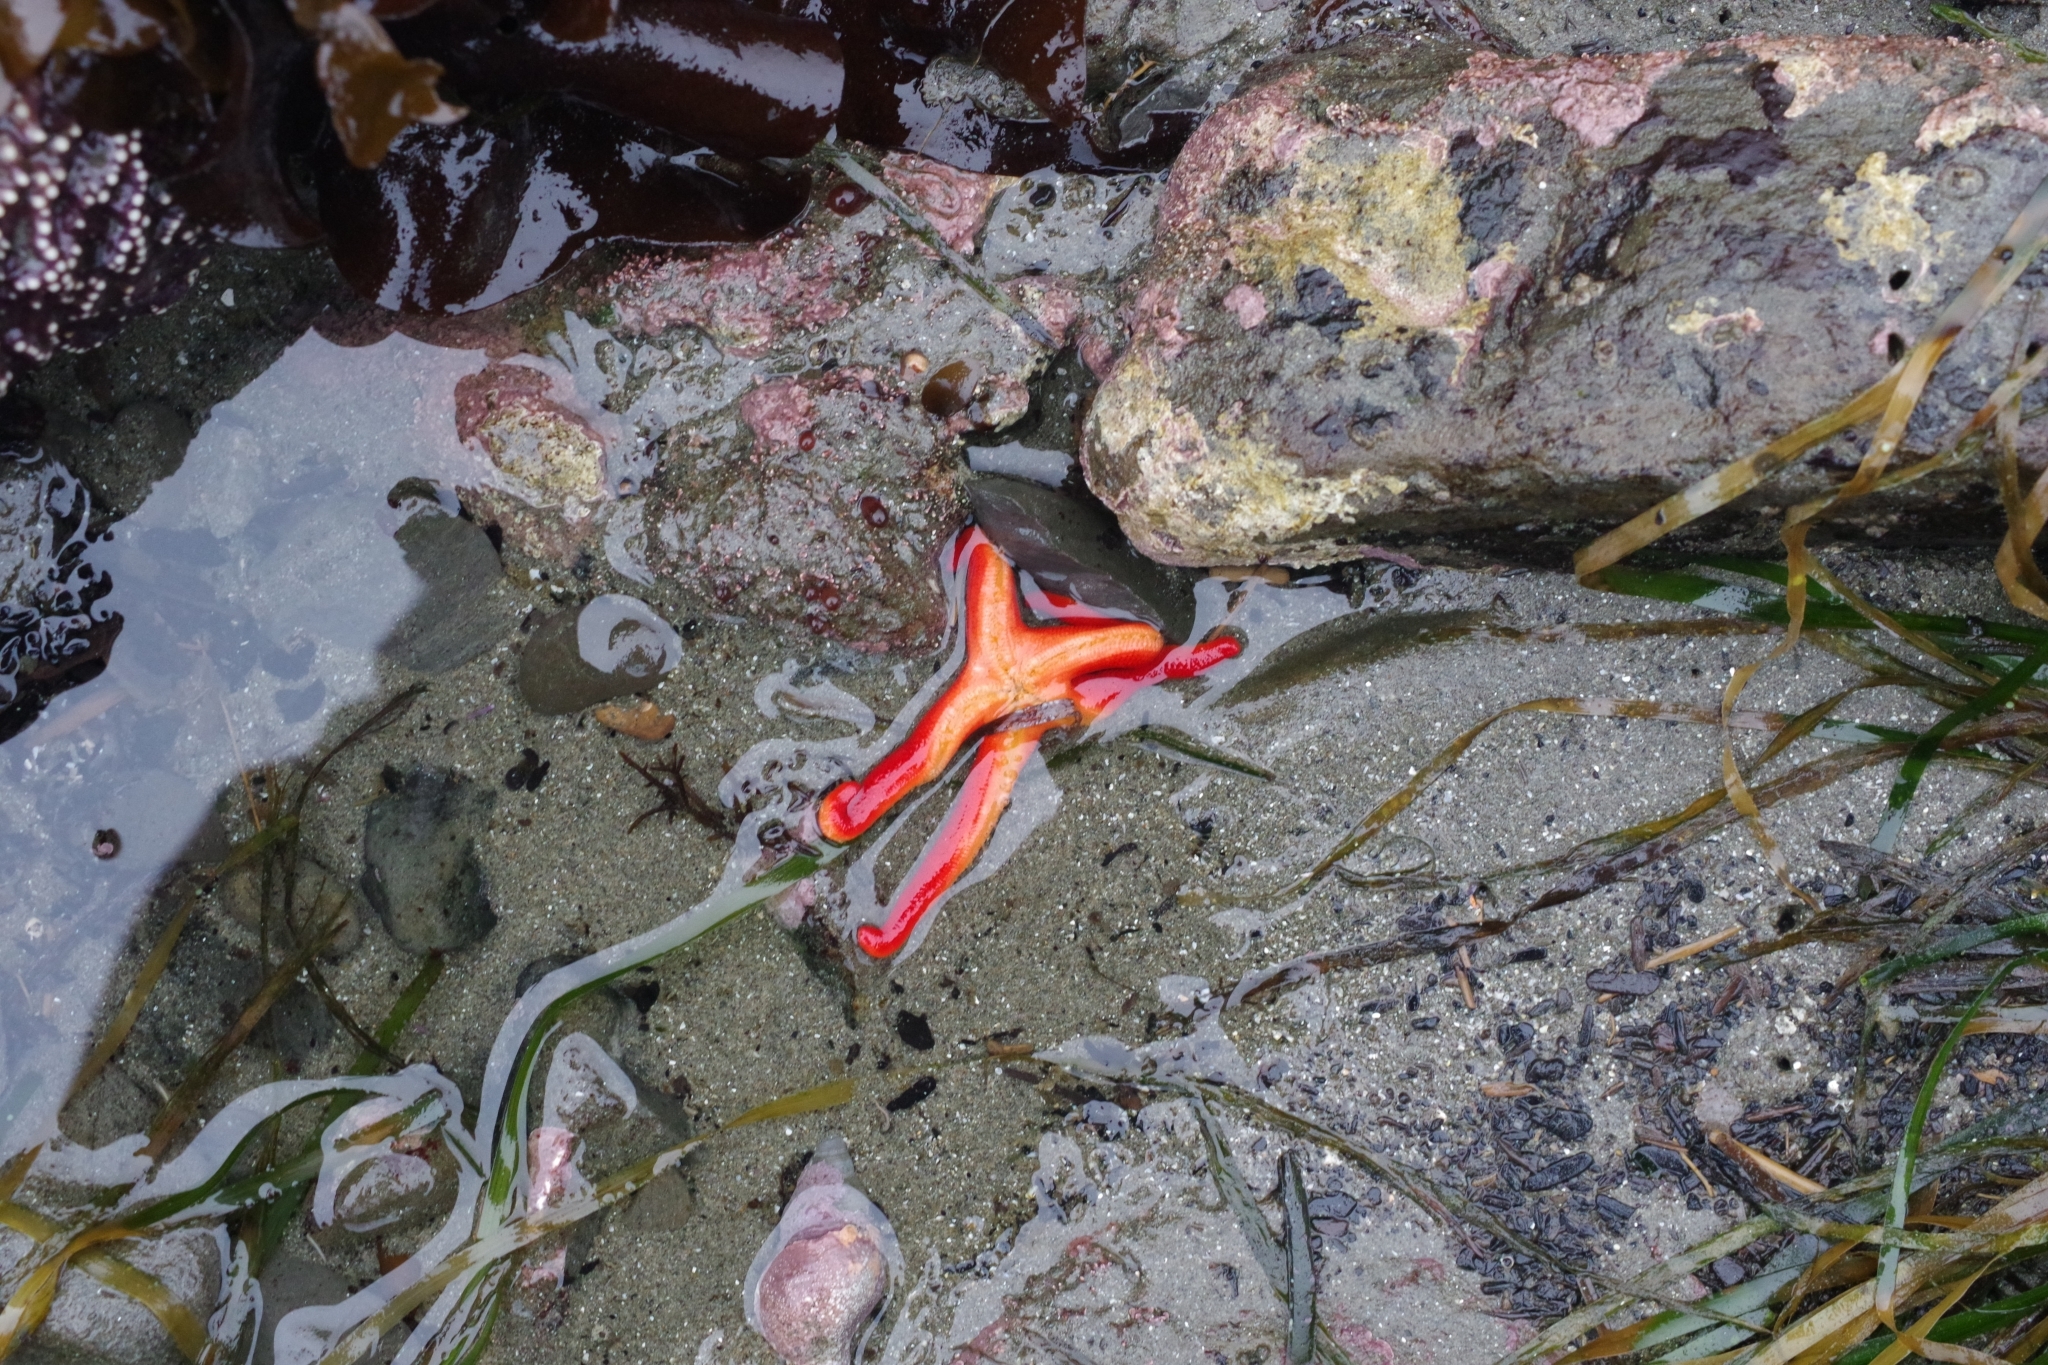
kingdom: Animalia
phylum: Echinodermata
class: Asteroidea
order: Spinulosida
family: Echinasteridae
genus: Henricia
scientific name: Henricia
